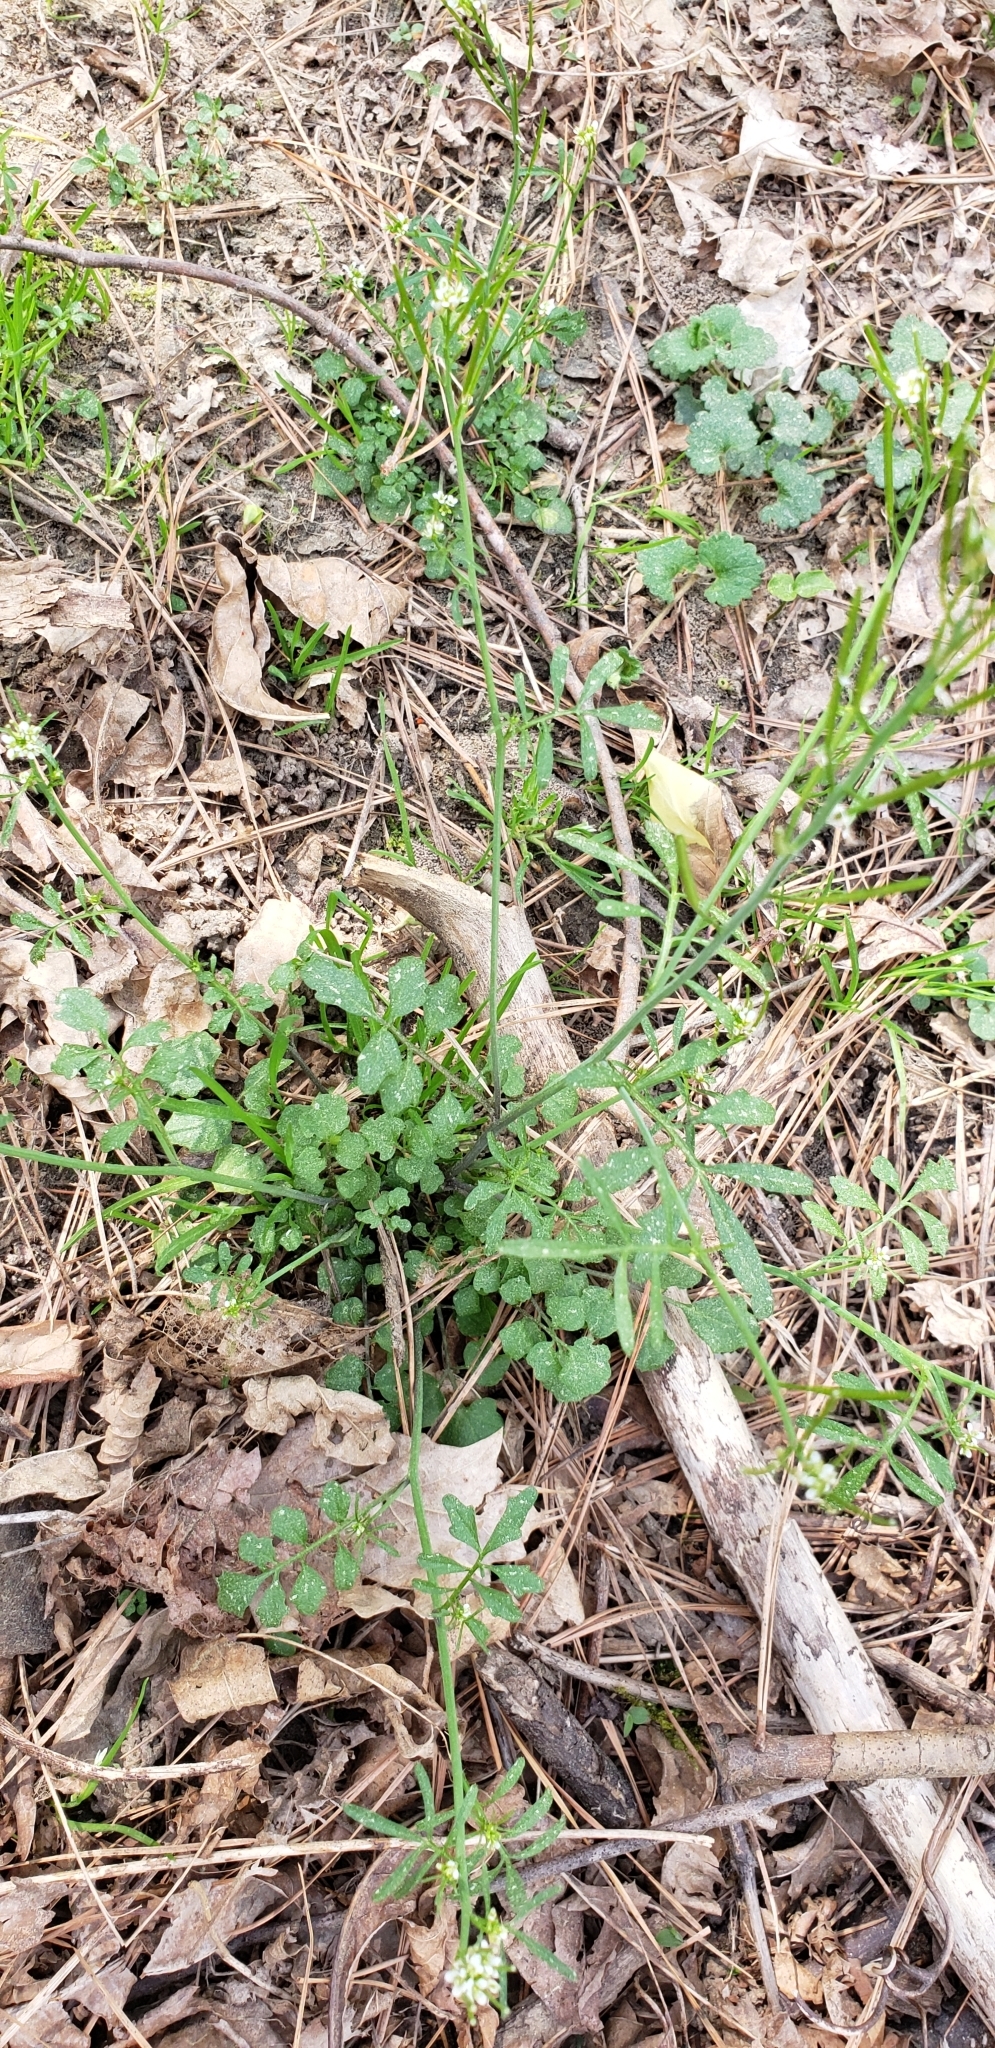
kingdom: Plantae
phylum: Tracheophyta
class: Magnoliopsida
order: Brassicales
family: Brassicaceae
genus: Cardamine
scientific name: Cardamine hirsuta
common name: Hairy bittercress
